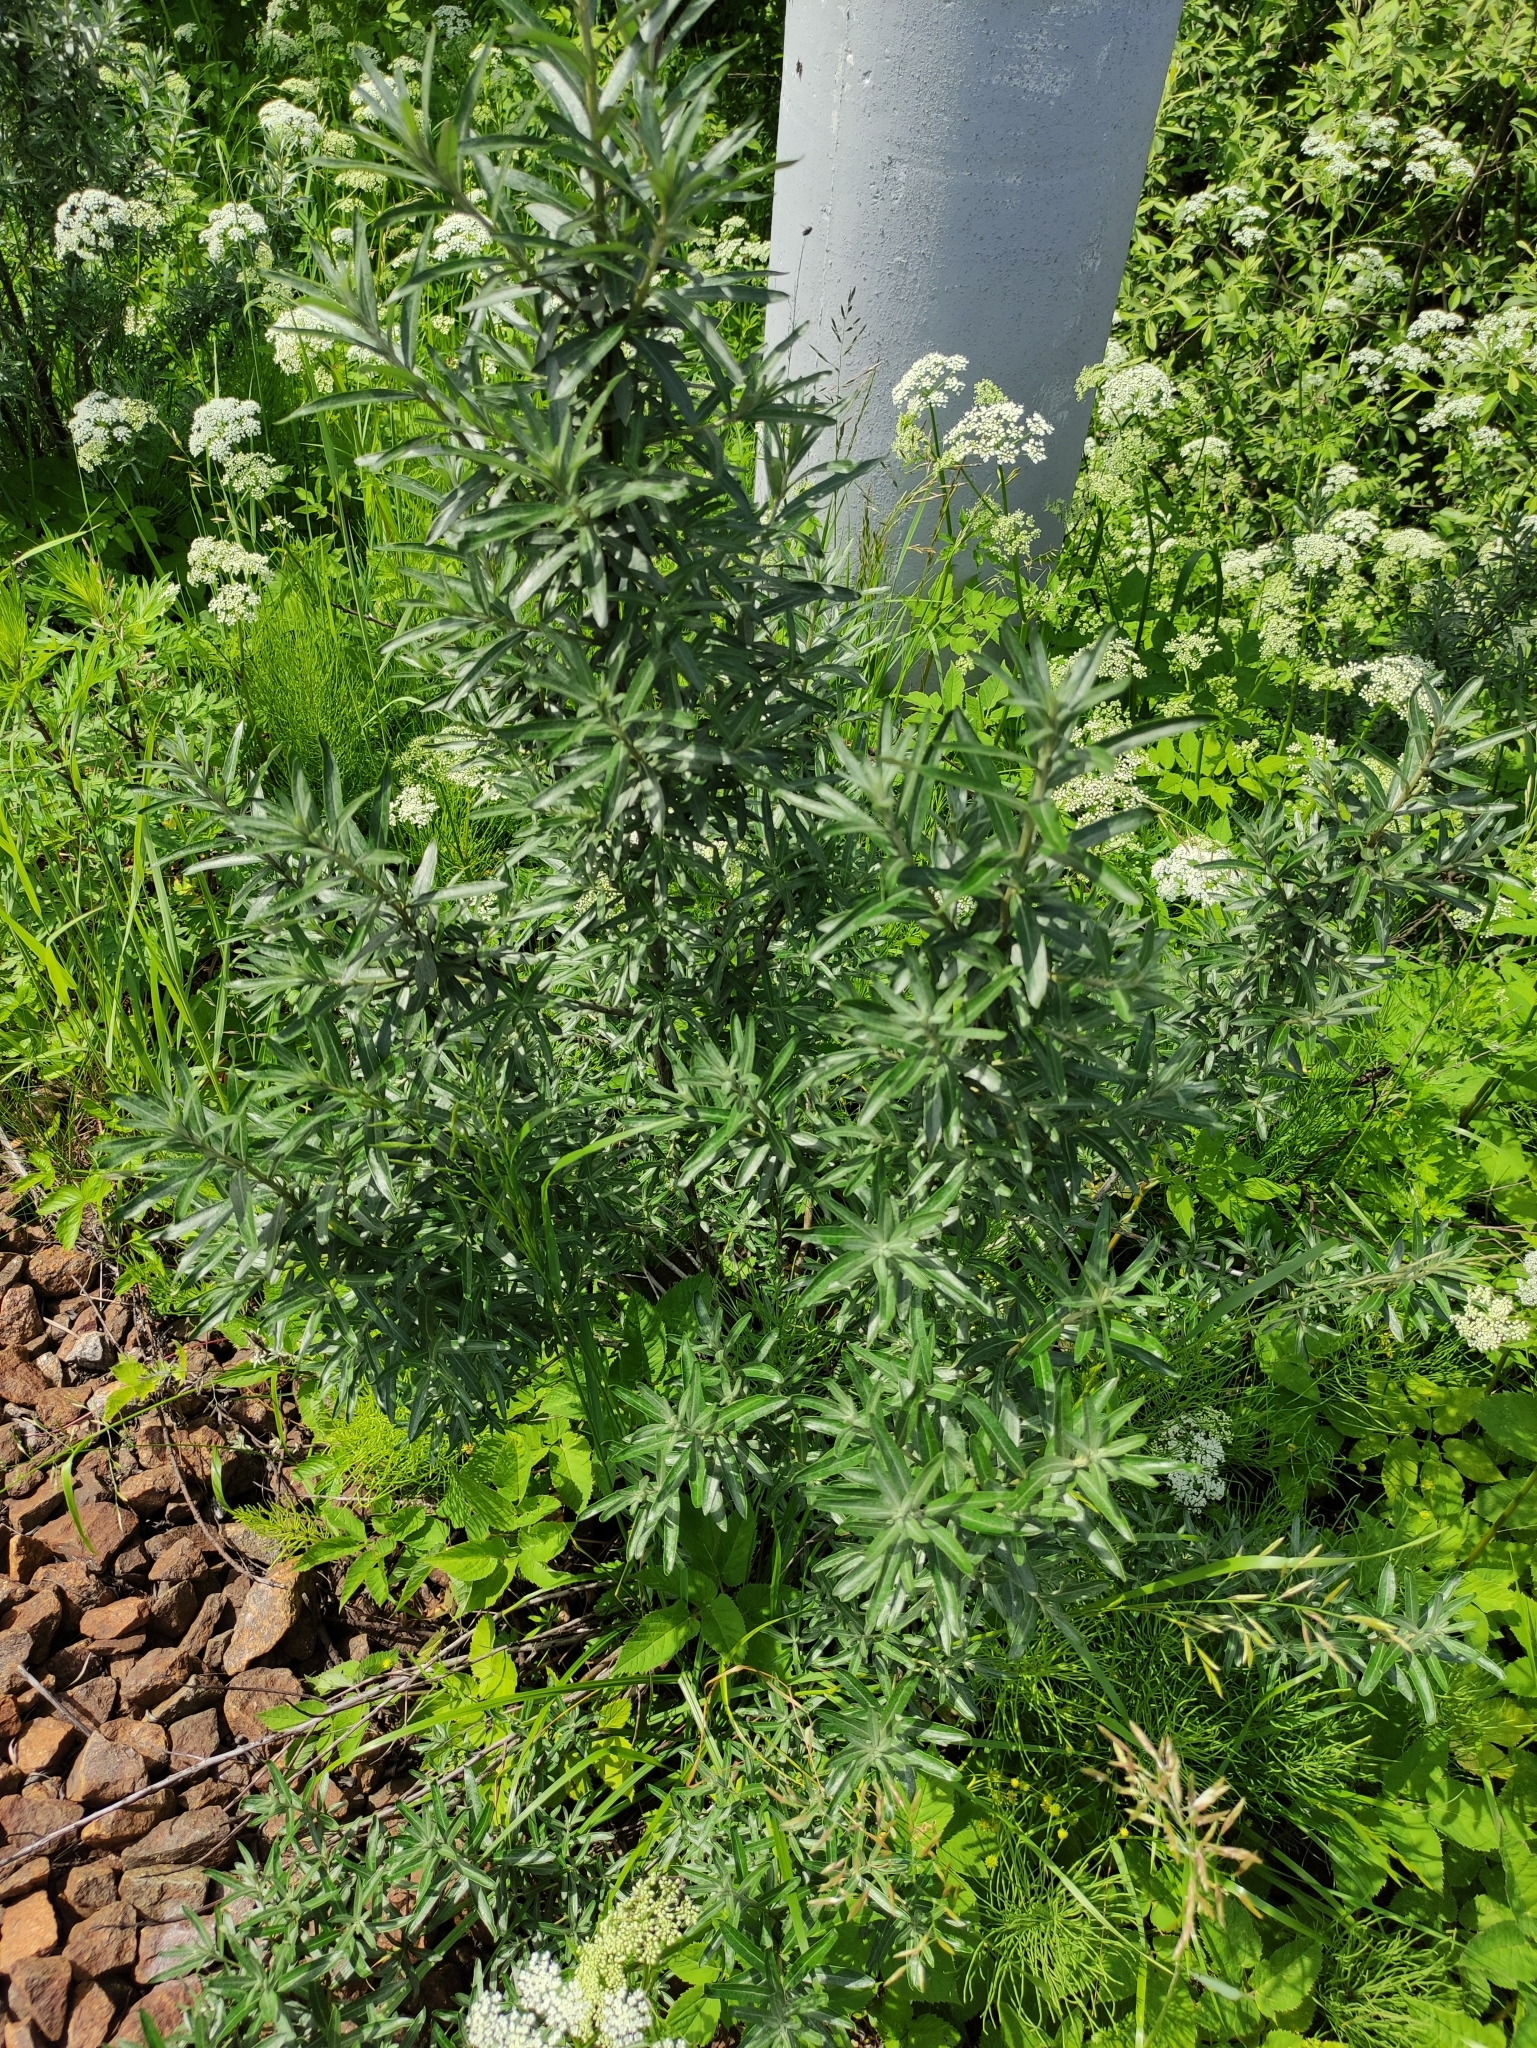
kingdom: Plantae
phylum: Tracheophyta
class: Magnoliopsida
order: Rosales
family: Elaeagnaceae
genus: Hippophae
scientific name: Hippophae rhamnoides
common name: Sea-buckthorn
